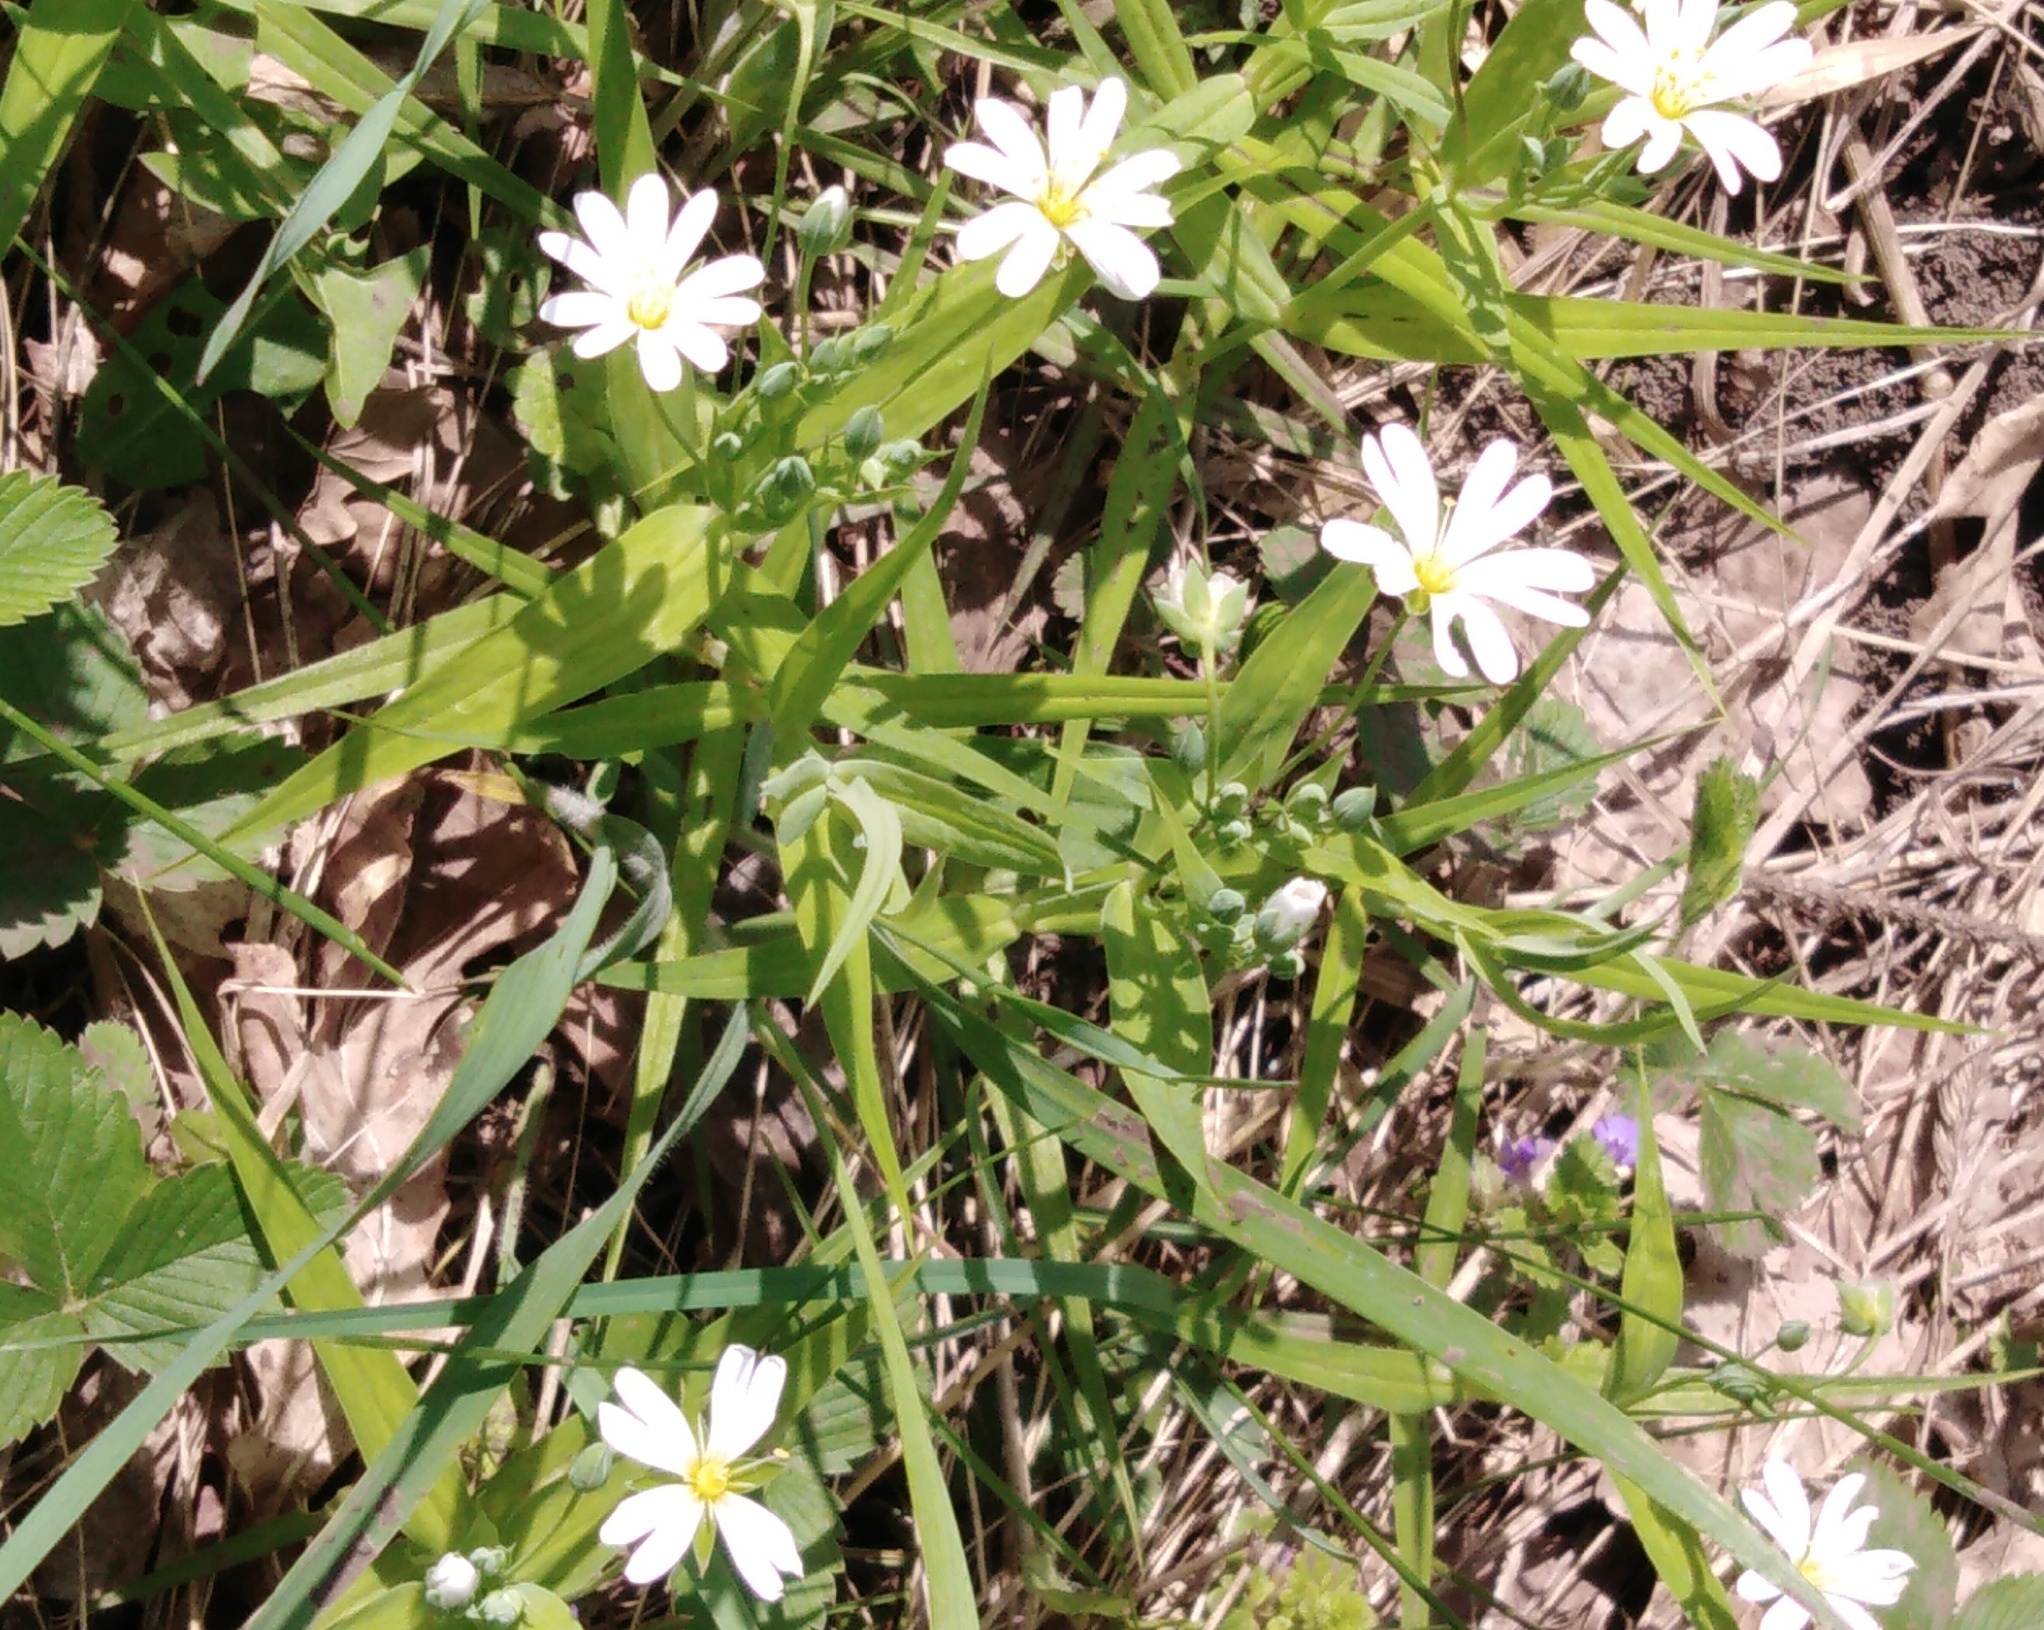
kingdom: Plantae
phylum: Tracheophyta
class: Magnoliopsida
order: Caryophyllales
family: Caryophyllaceae
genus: Rabelera
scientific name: Rabelera holostea
